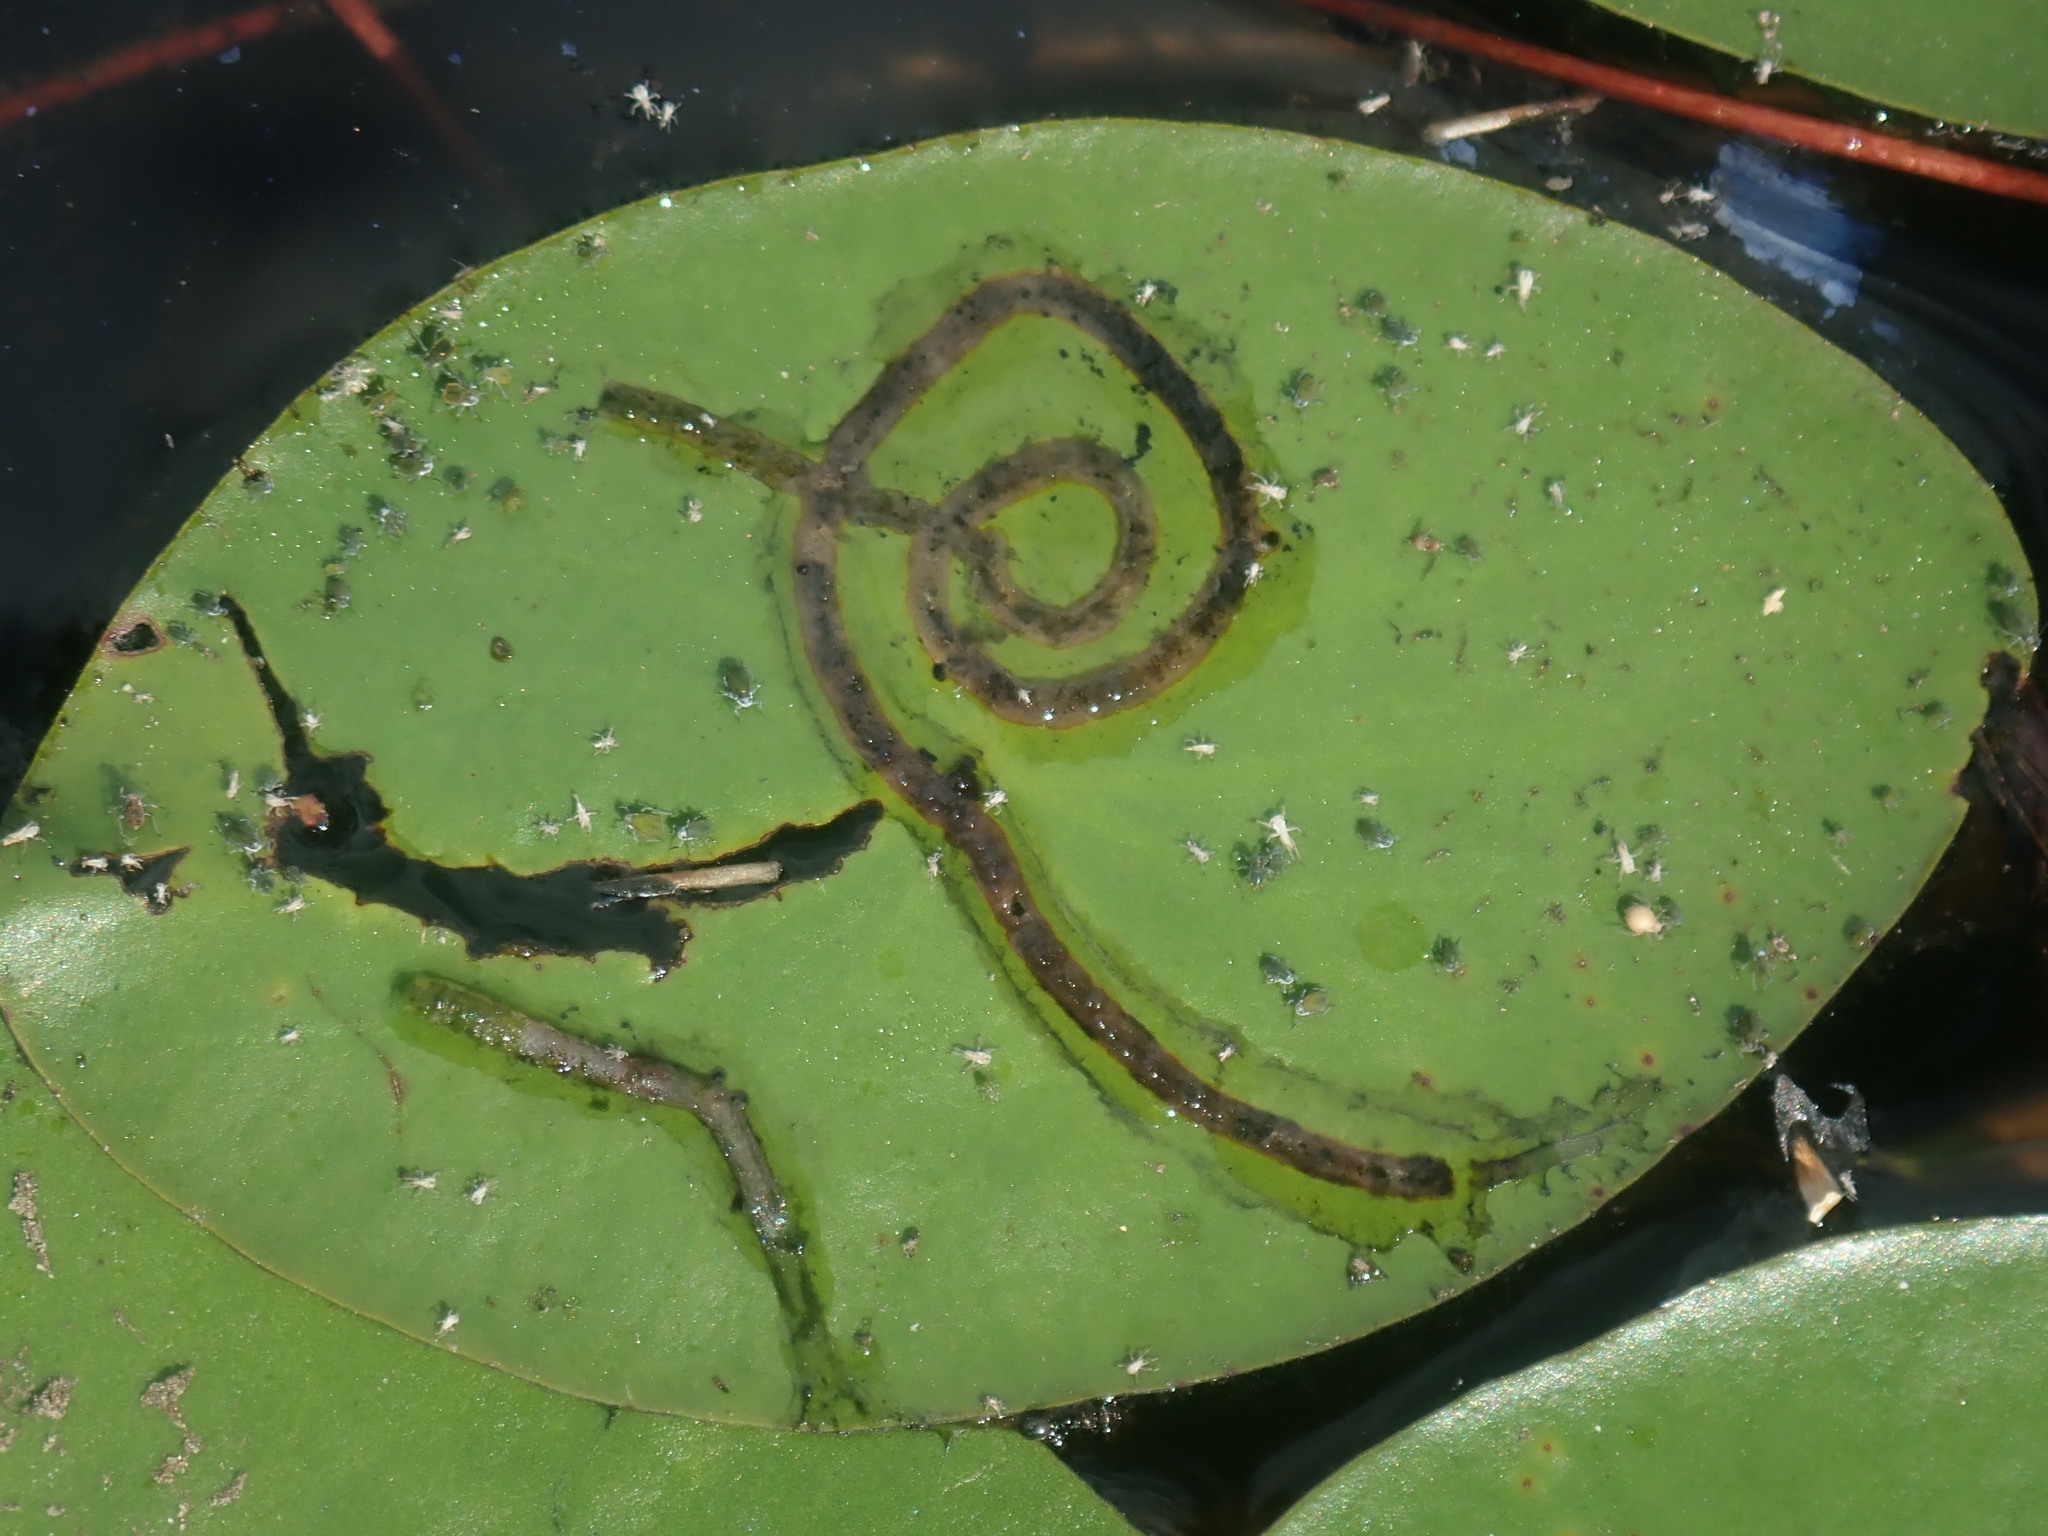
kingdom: Animalia
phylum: Arthropoda
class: Insecta
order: Diptera
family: Chironomidae
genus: Polypedilum
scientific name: Polypedilum braseniae
